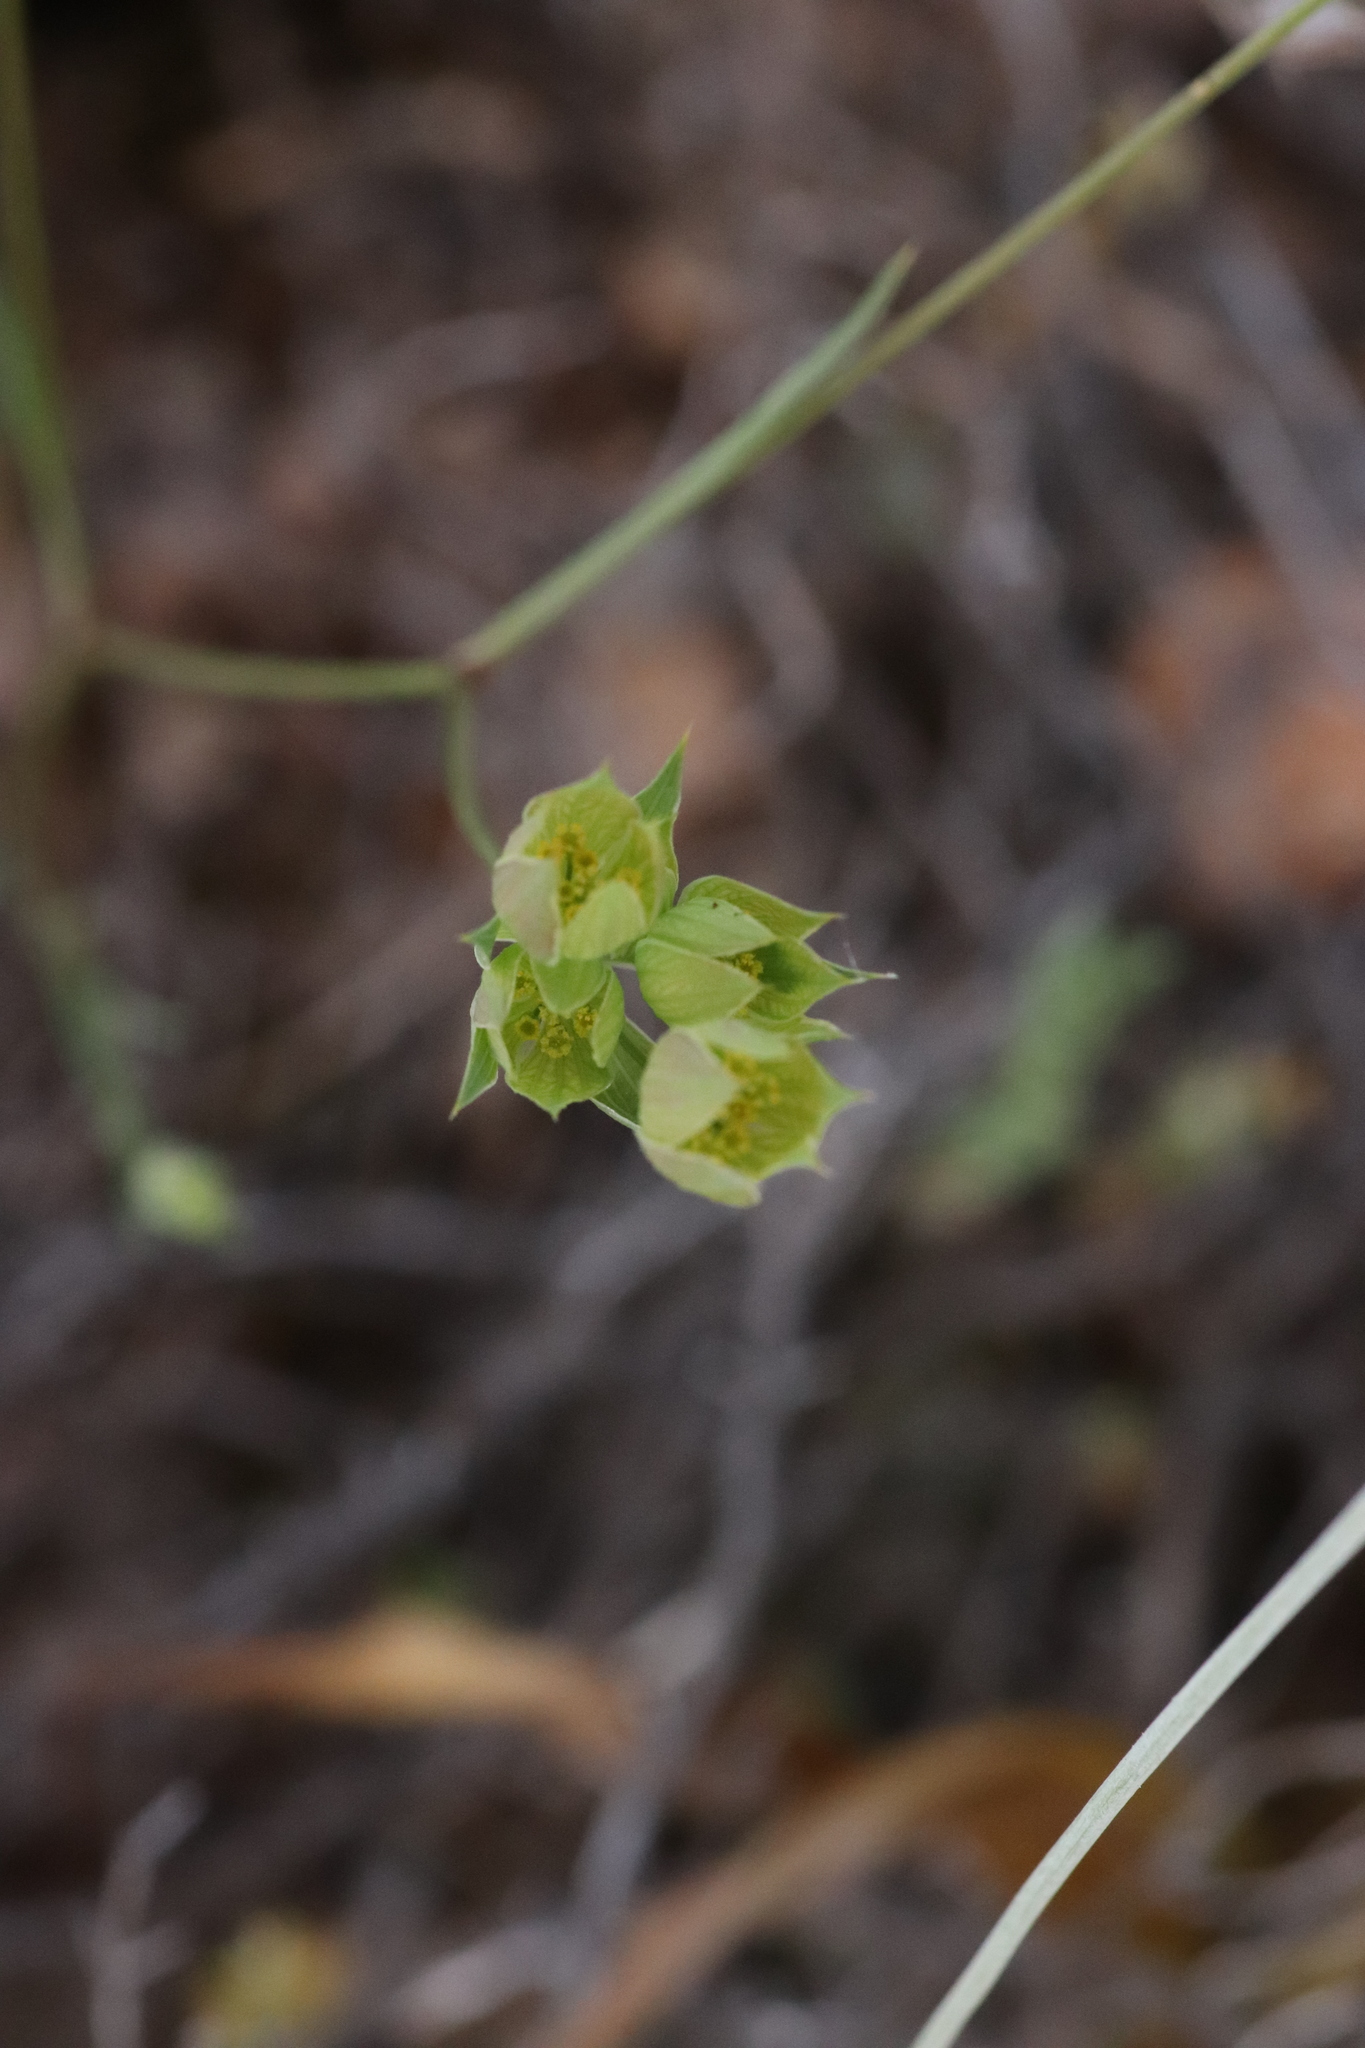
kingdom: Plantae
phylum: Tracheophyta
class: Magnoliopsida
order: Apiales
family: Apiaceae
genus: Bupleurum
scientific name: Bupleurum baldense
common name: Small hare's-ear
